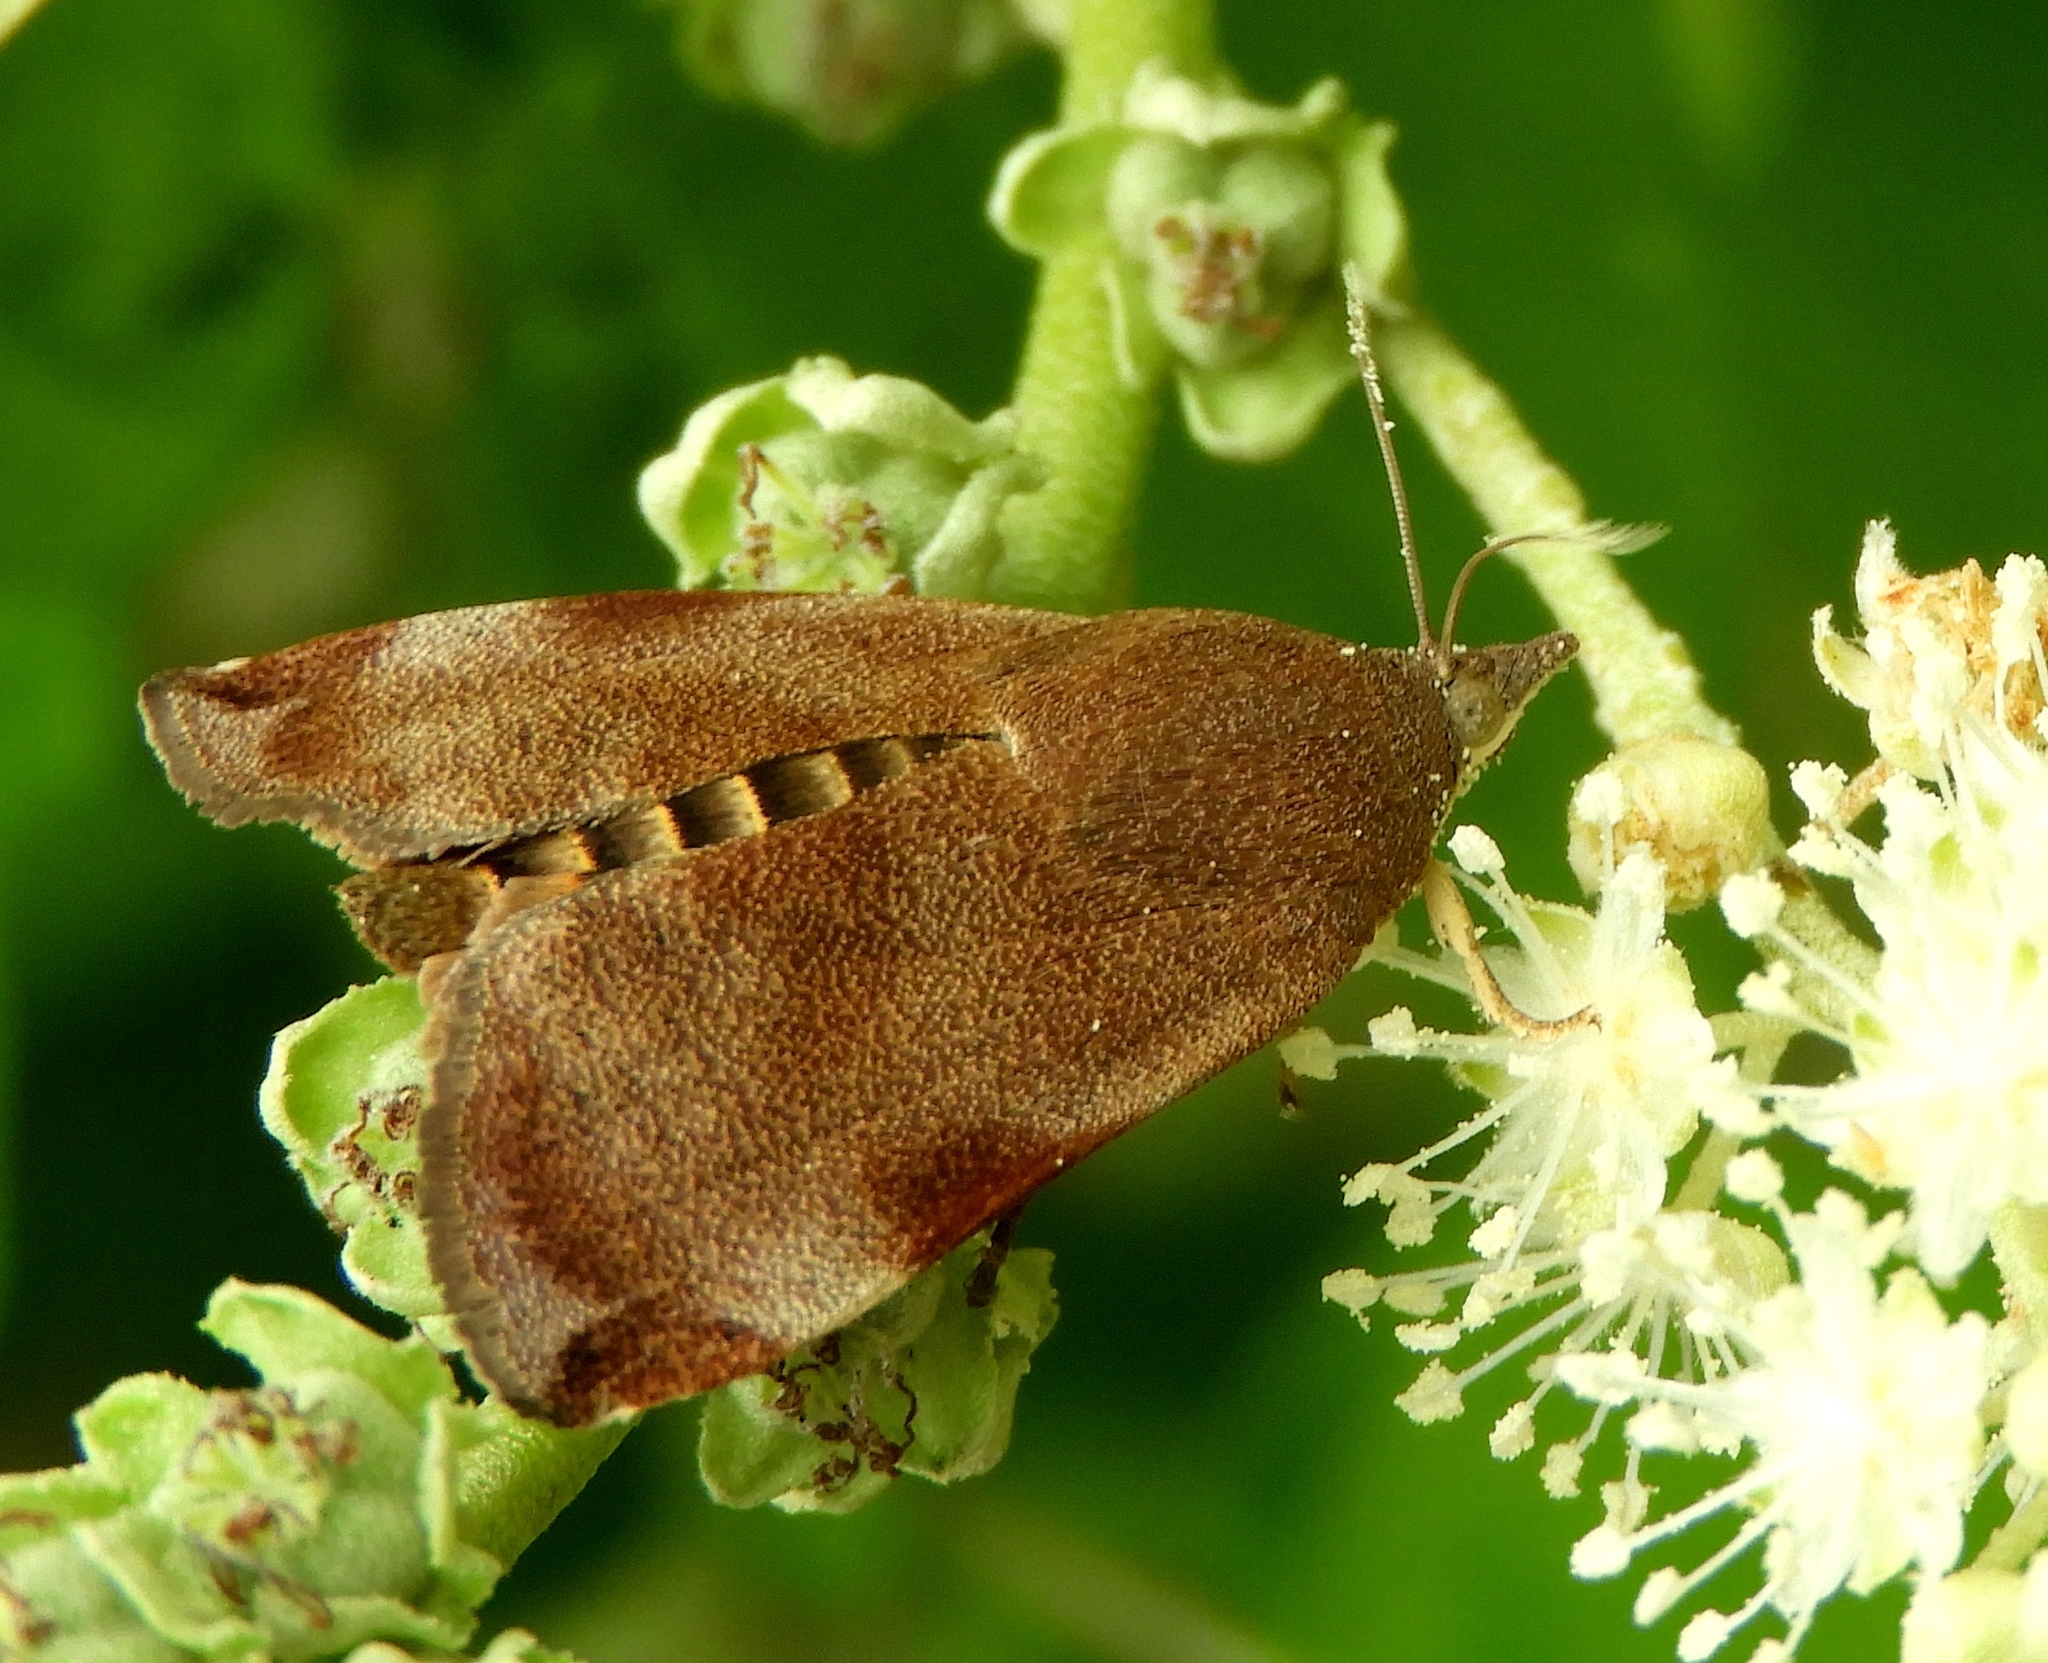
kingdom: Animalia
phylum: Arthropoda
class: Insecta
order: Lepidoptera
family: Hyblaeidae
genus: Hyblaea
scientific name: Hyblaea
